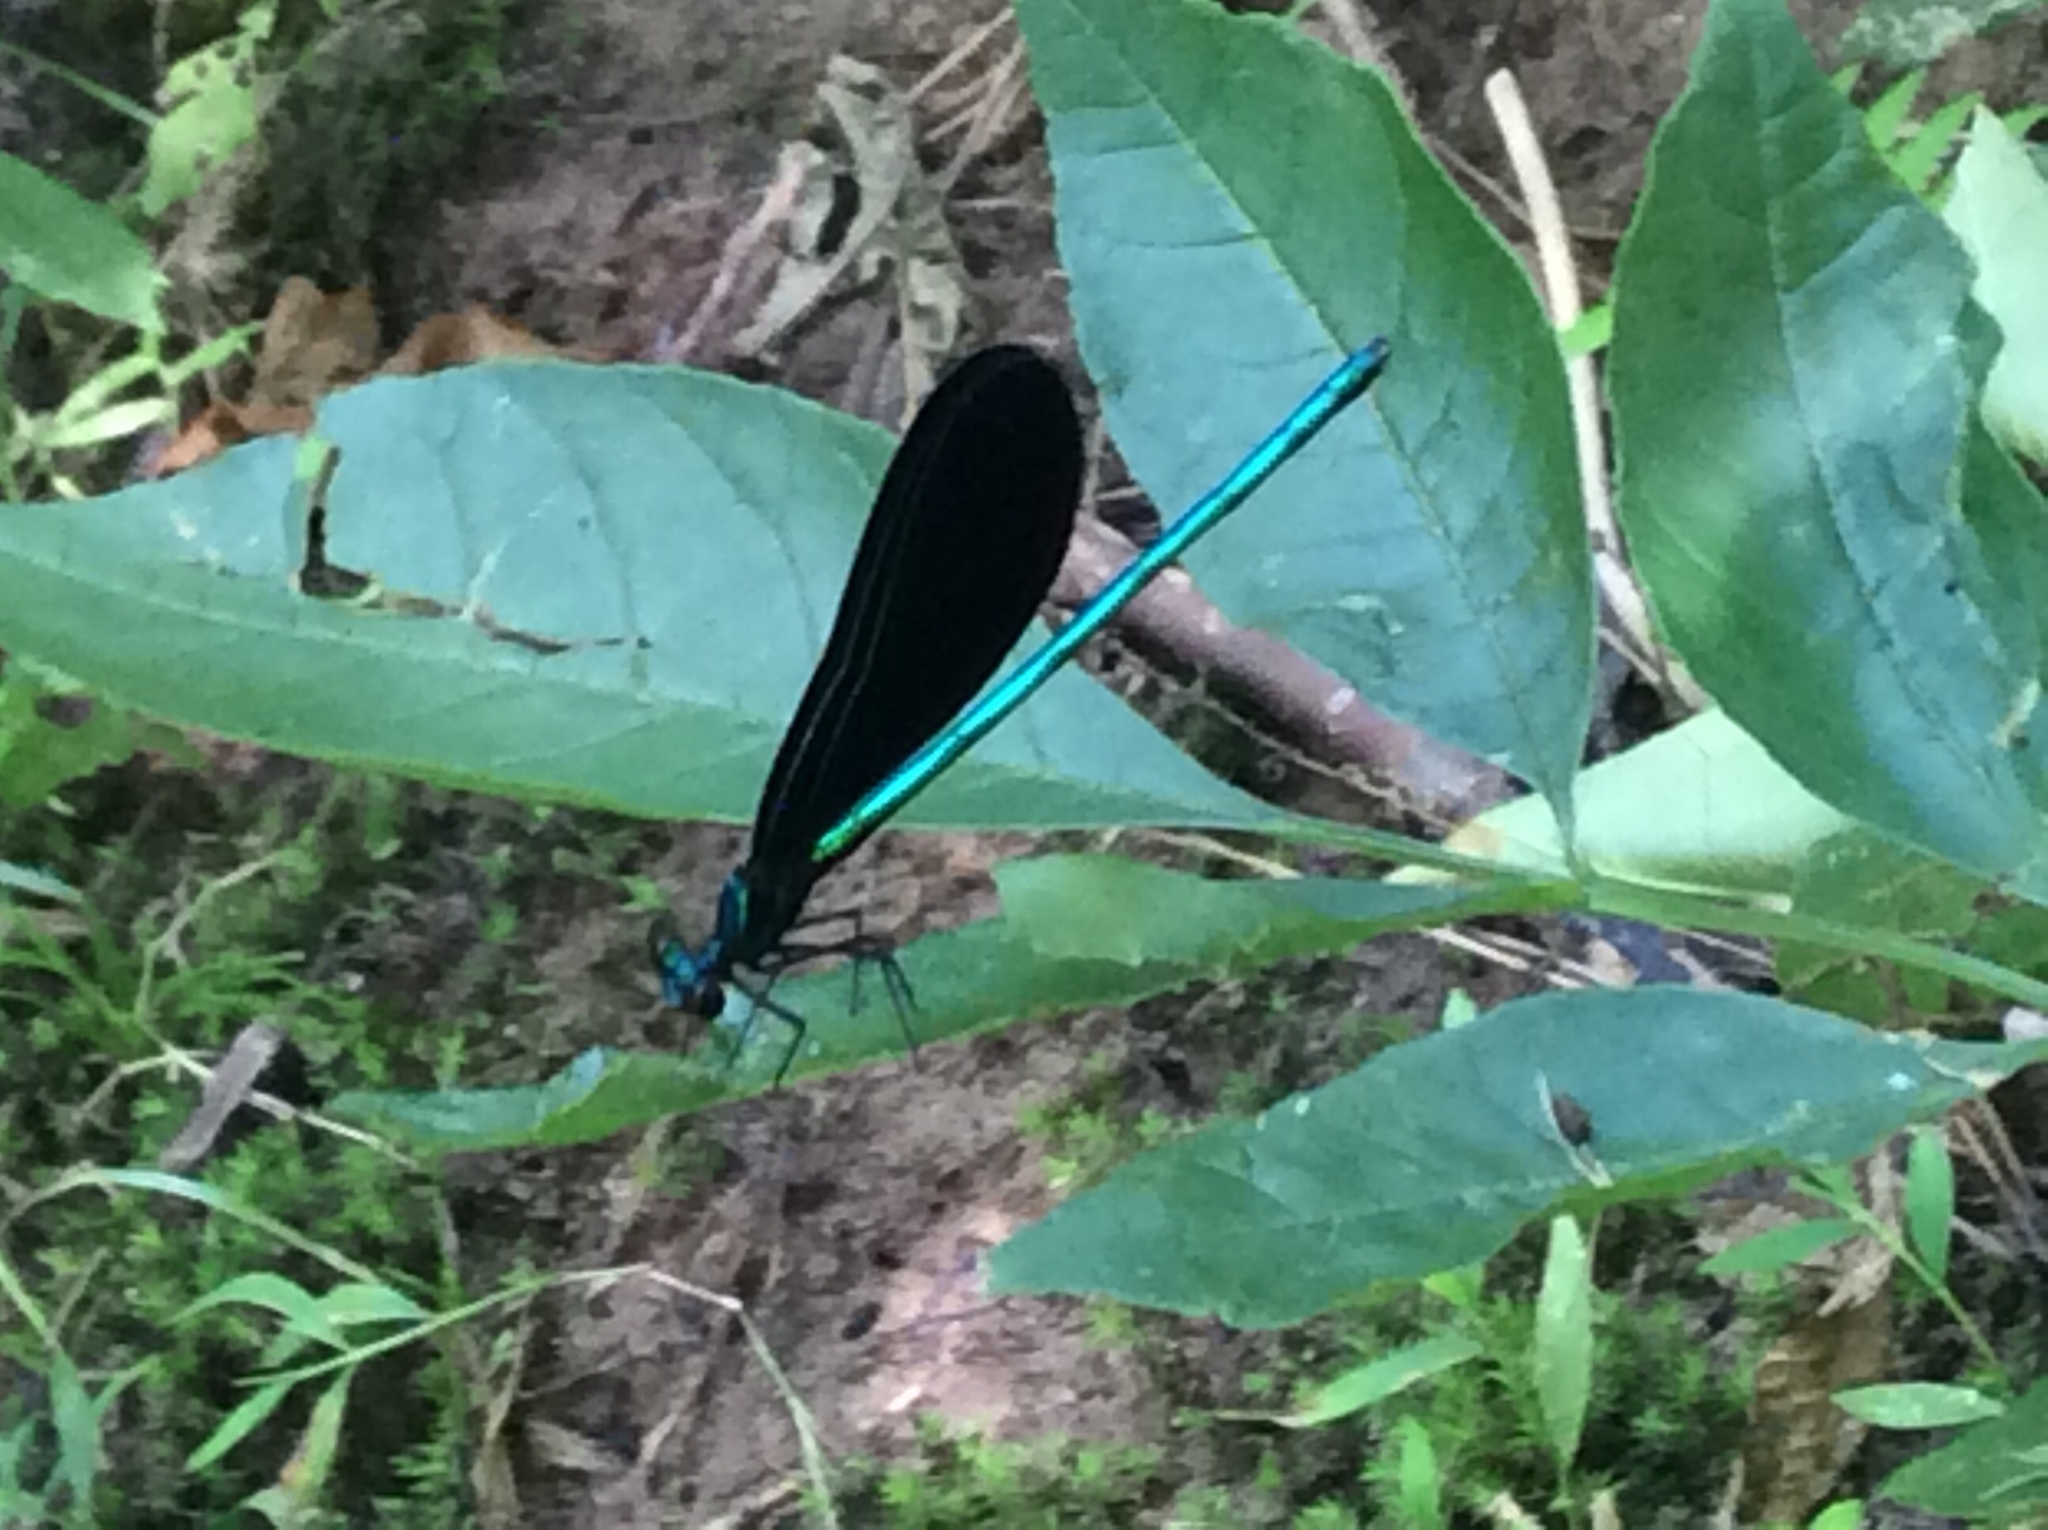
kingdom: Animalia
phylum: Arthropoda
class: Insecta
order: Odonata
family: Calopterygidae
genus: Calopteryx
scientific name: Calopteryx maculata
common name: Ebony jewelwing
